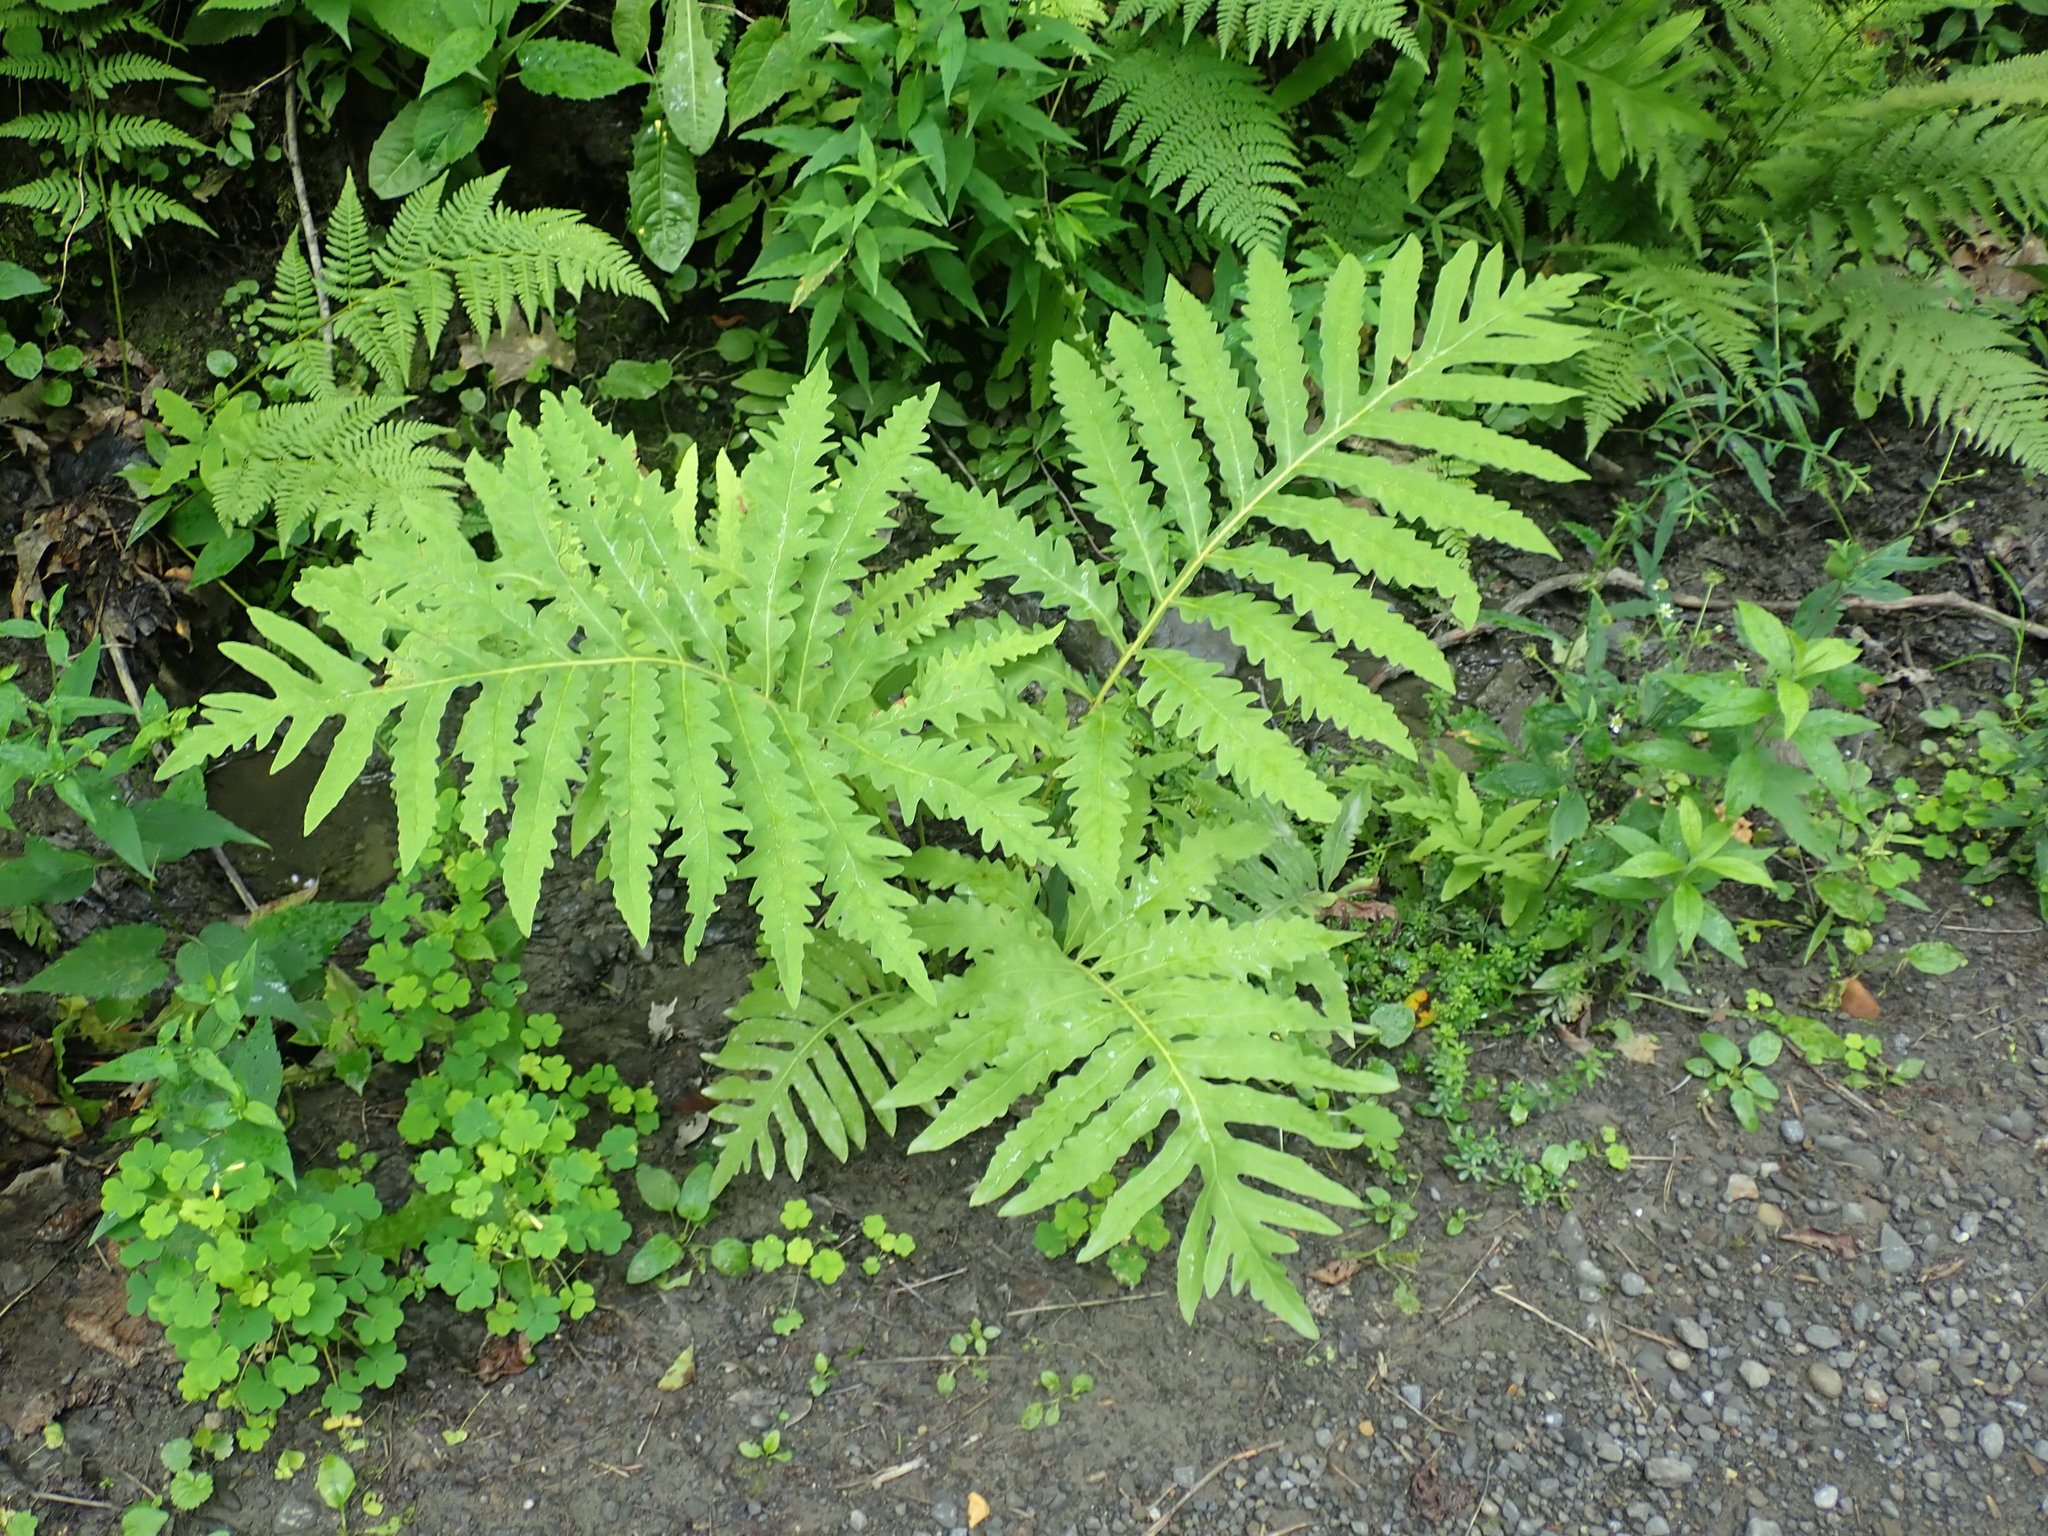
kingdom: Plantae
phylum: Tracheophyta
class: Polypodiopsida
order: Polypodiales
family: Onocleaceae
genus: Onoclea
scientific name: Onoclea sensibilis
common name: Sensitive fern
